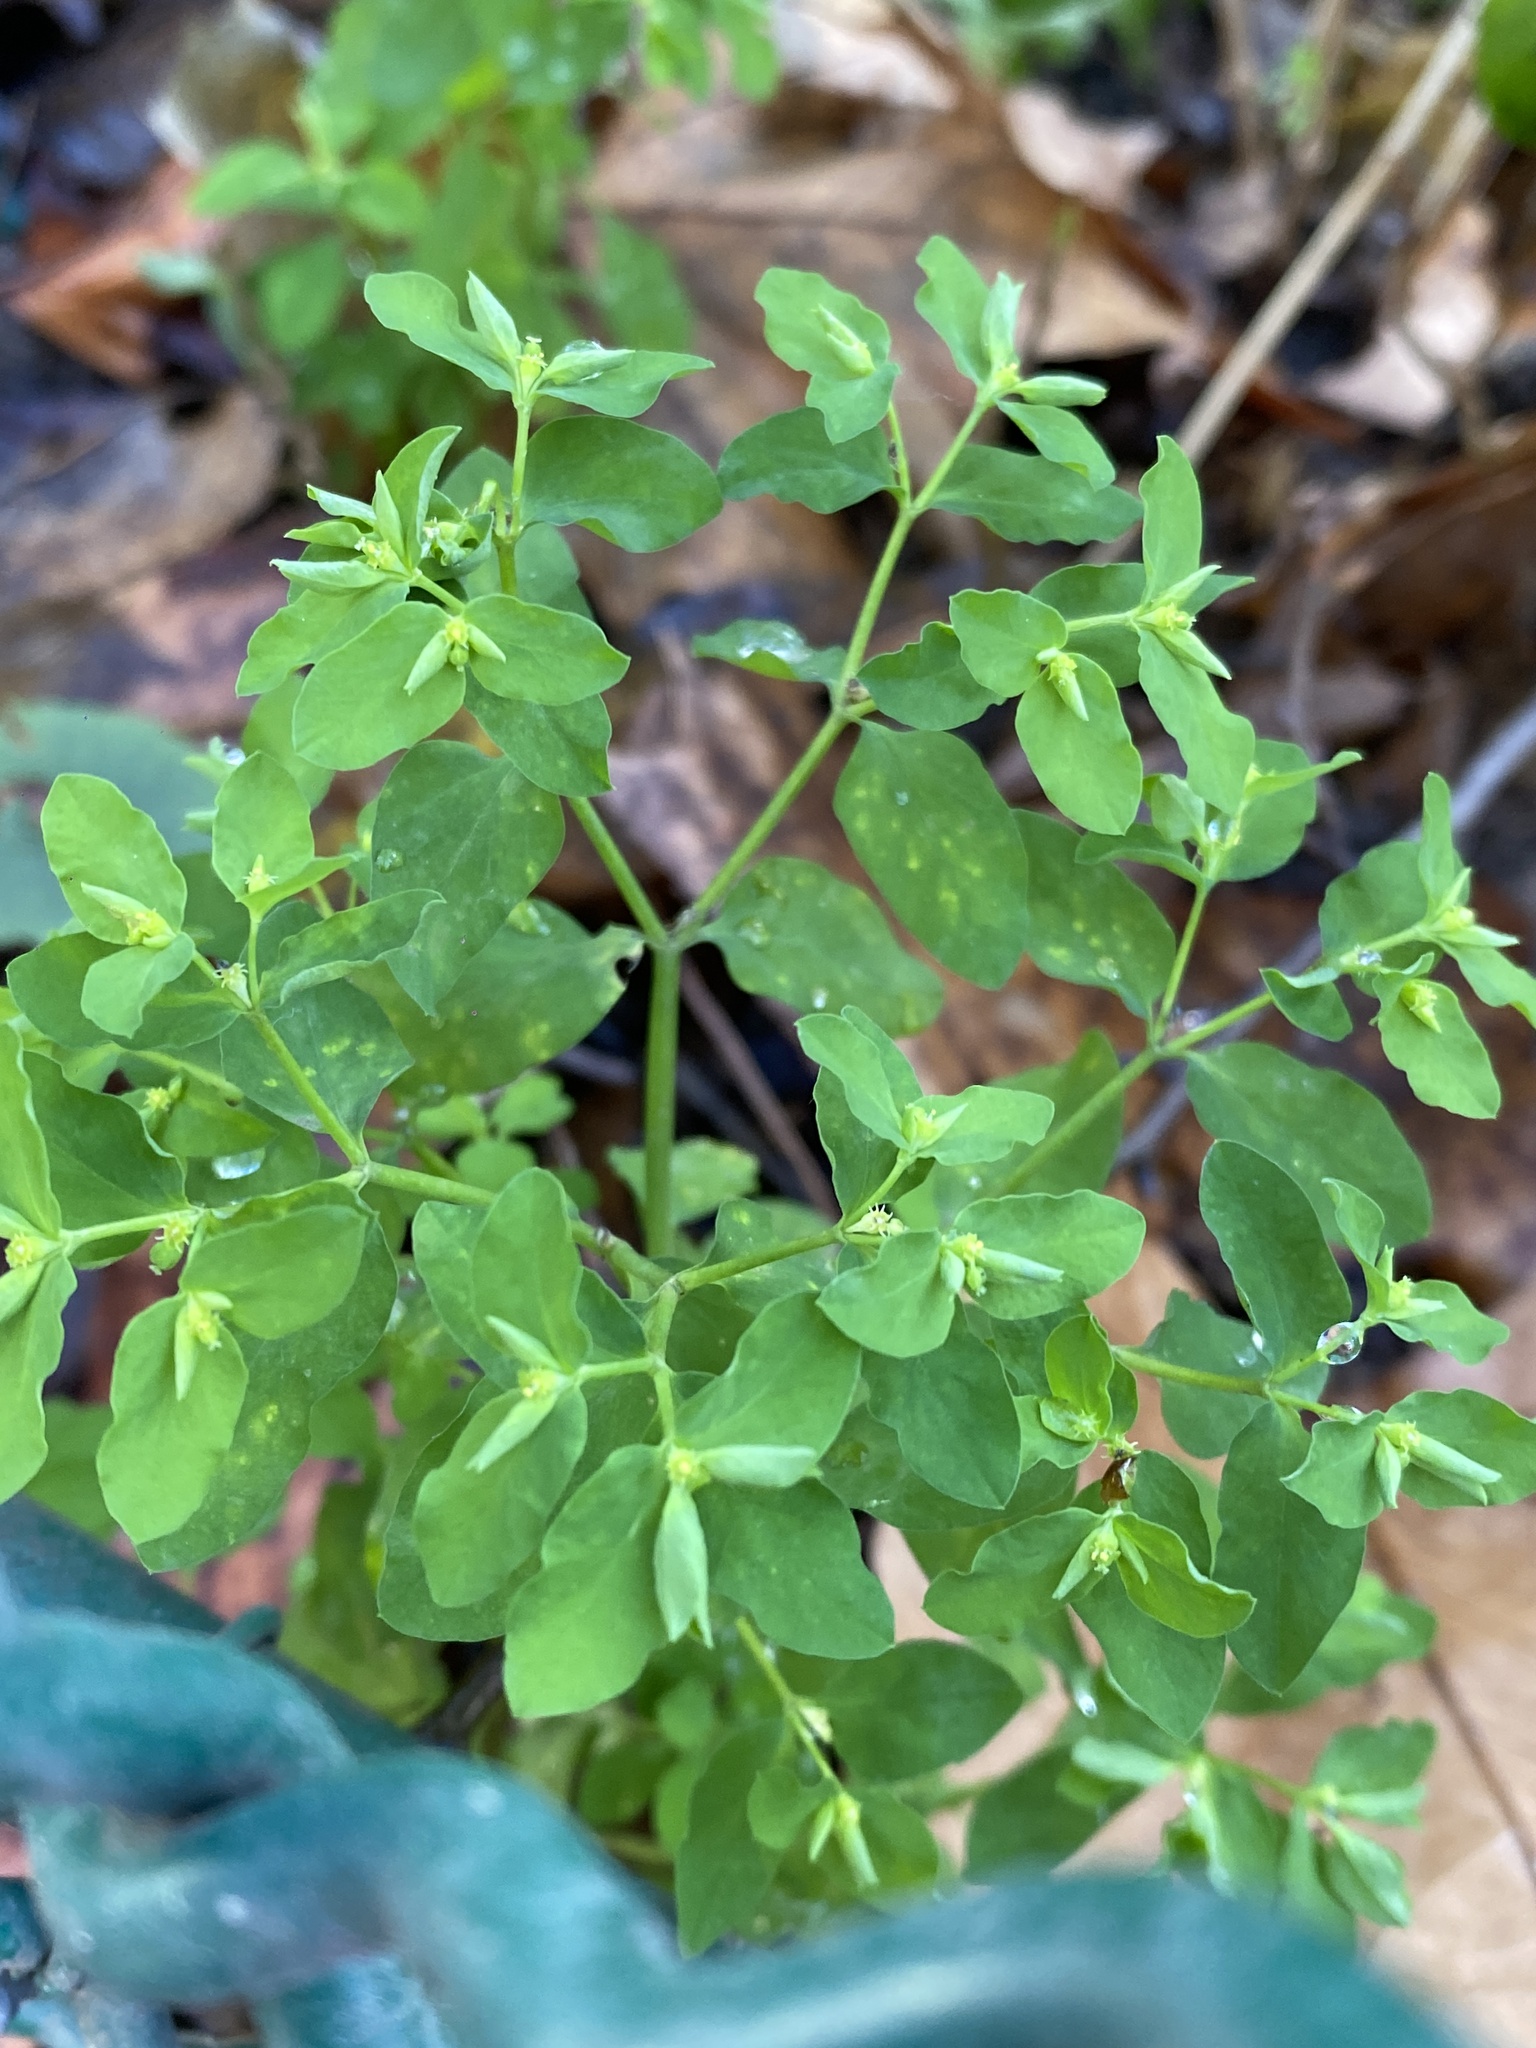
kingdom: Plantae
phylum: Tracheophyta
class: Magnoliopsida
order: Malpighiales
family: Euphorbiaceae
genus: Euphorbia
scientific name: Euphorbia peplus
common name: Petty spurge
